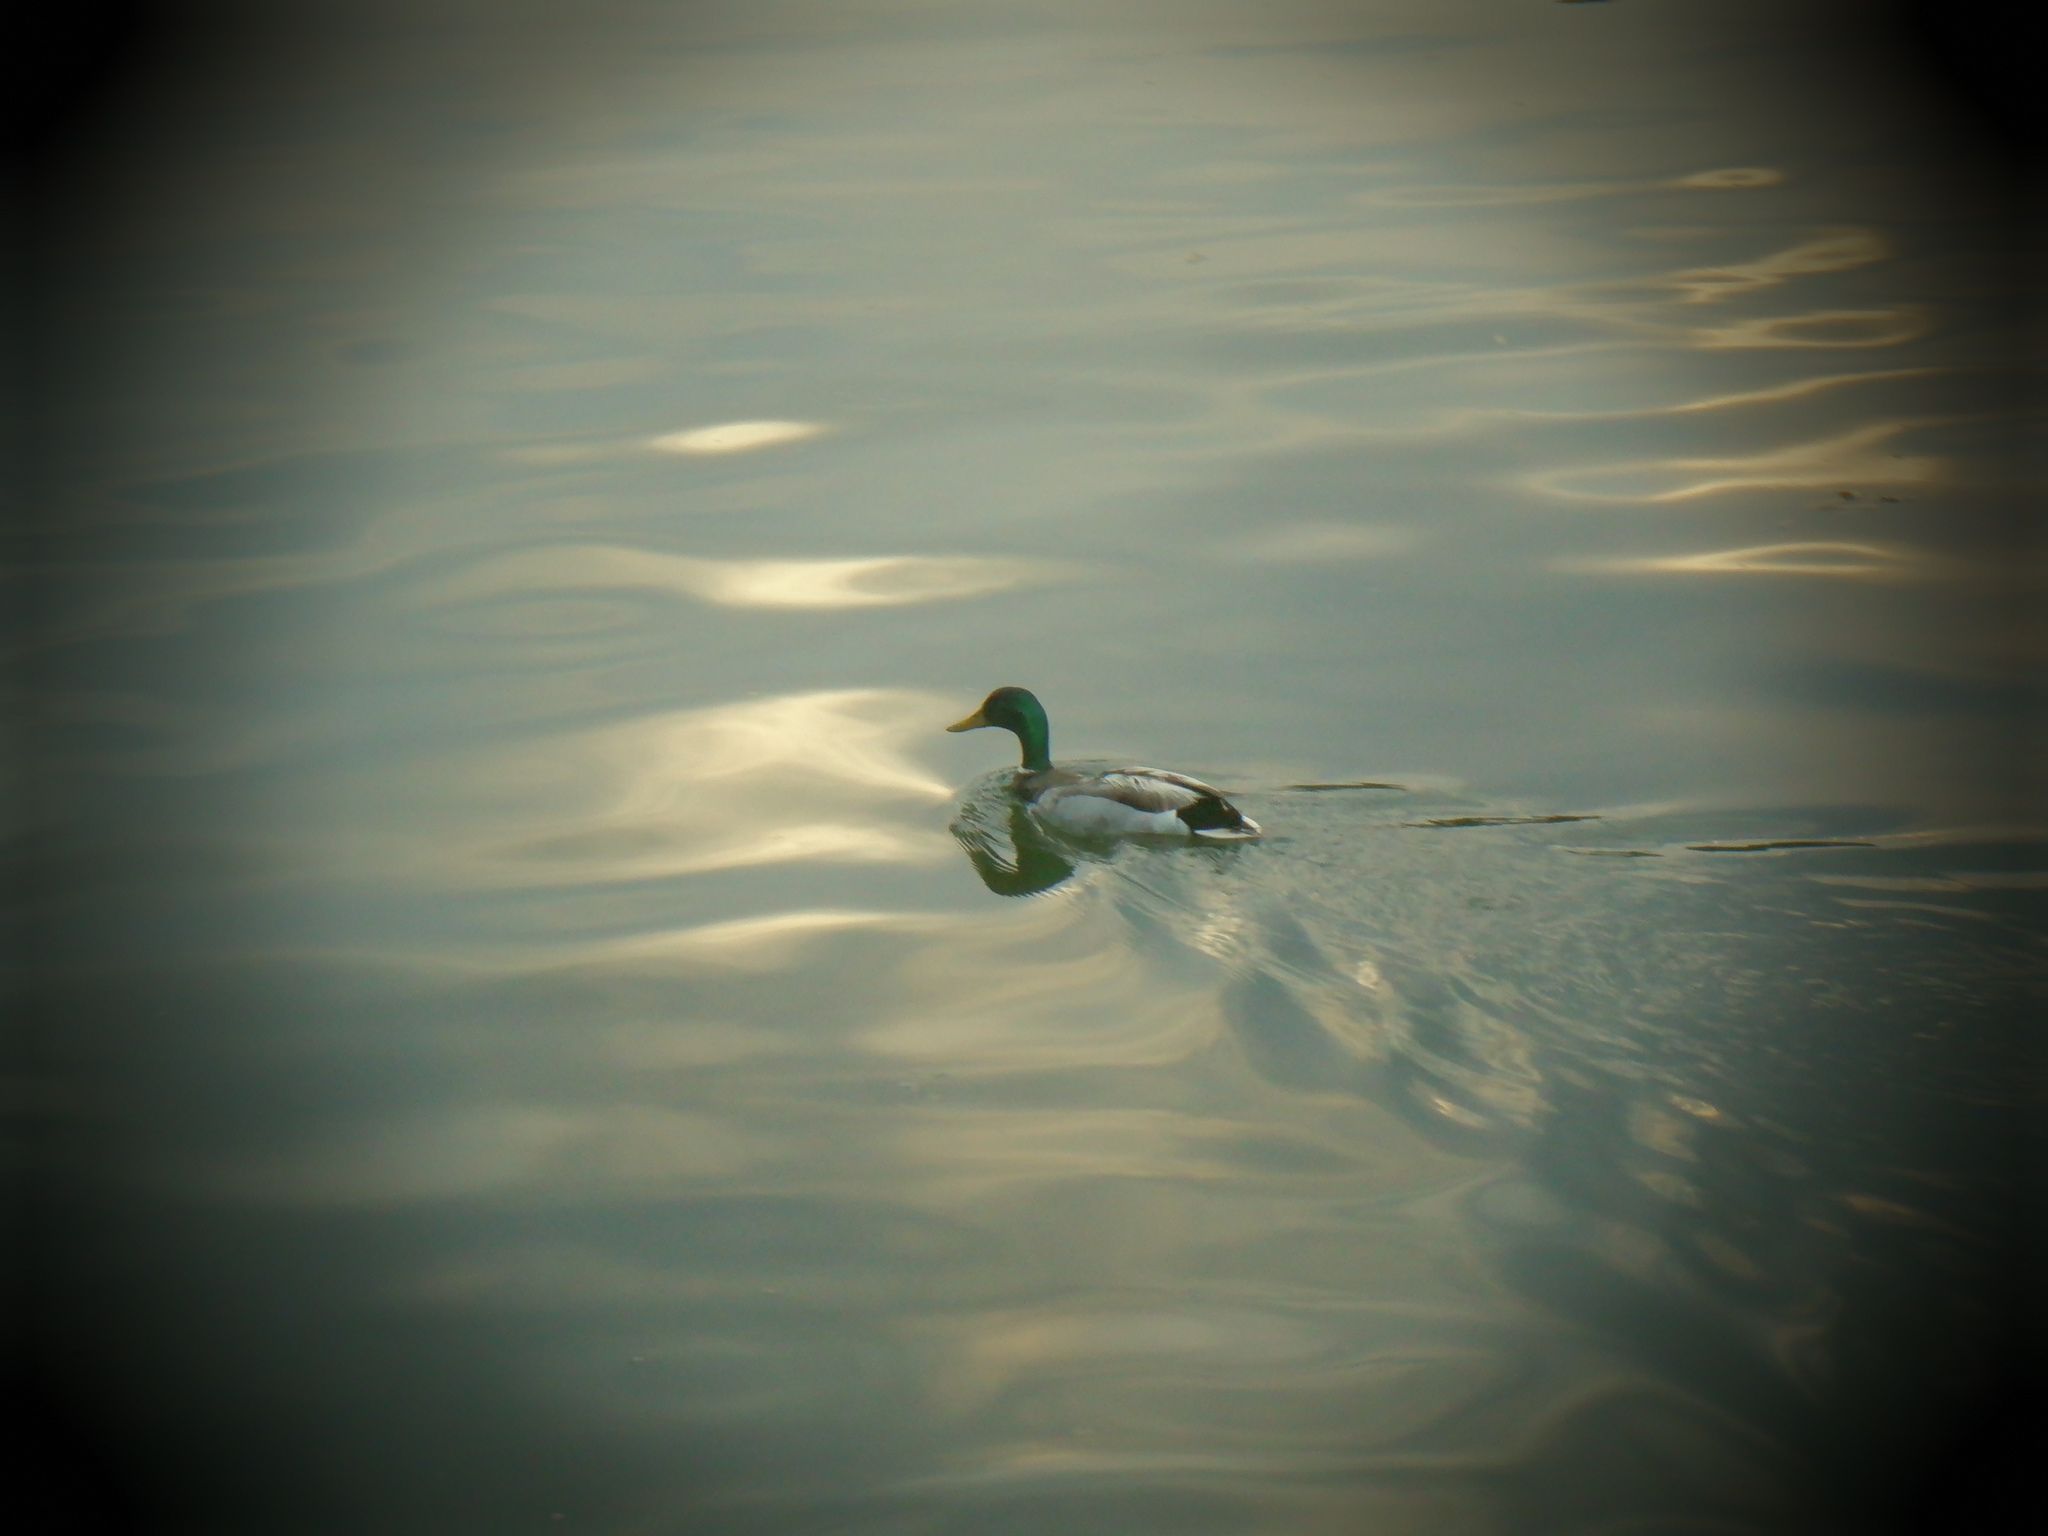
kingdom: Animalia
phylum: Chordata
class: Aves
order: Anseriformes
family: Anatidae
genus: Anas
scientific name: Anas platyrhynchos
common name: Mallard
